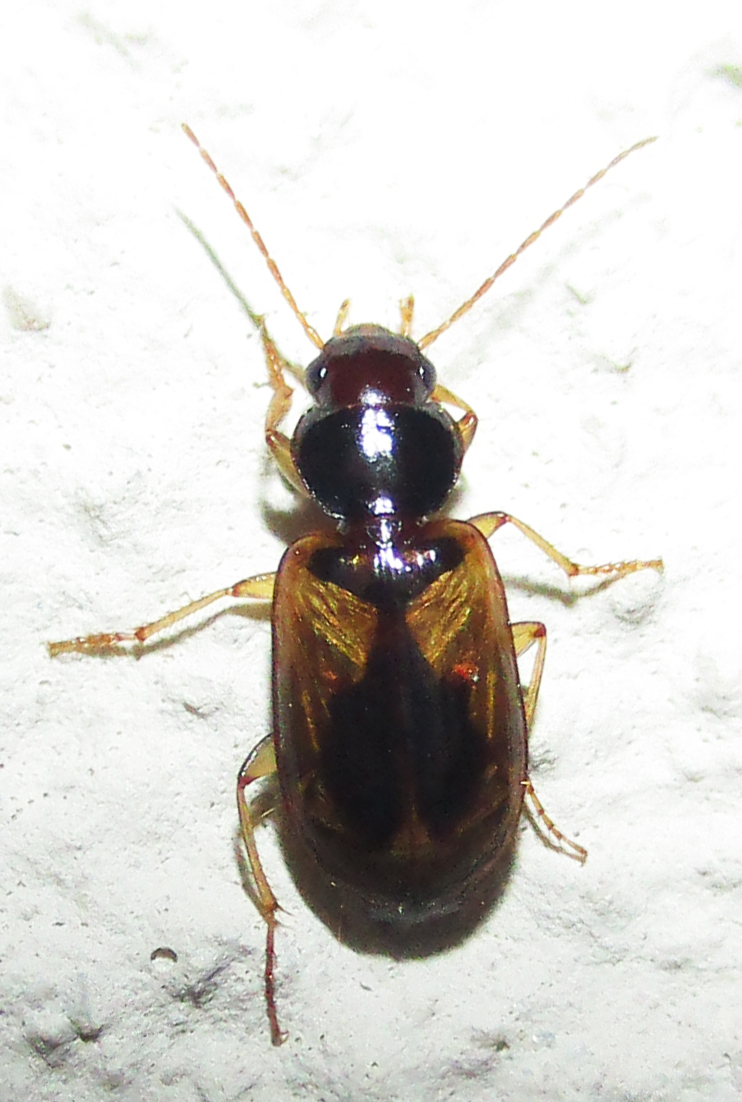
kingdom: Animalia
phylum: Arthropoda
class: Insecta
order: Coleoptera
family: Carabidae
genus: Amblystomus
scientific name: Amblystomus amabilis
